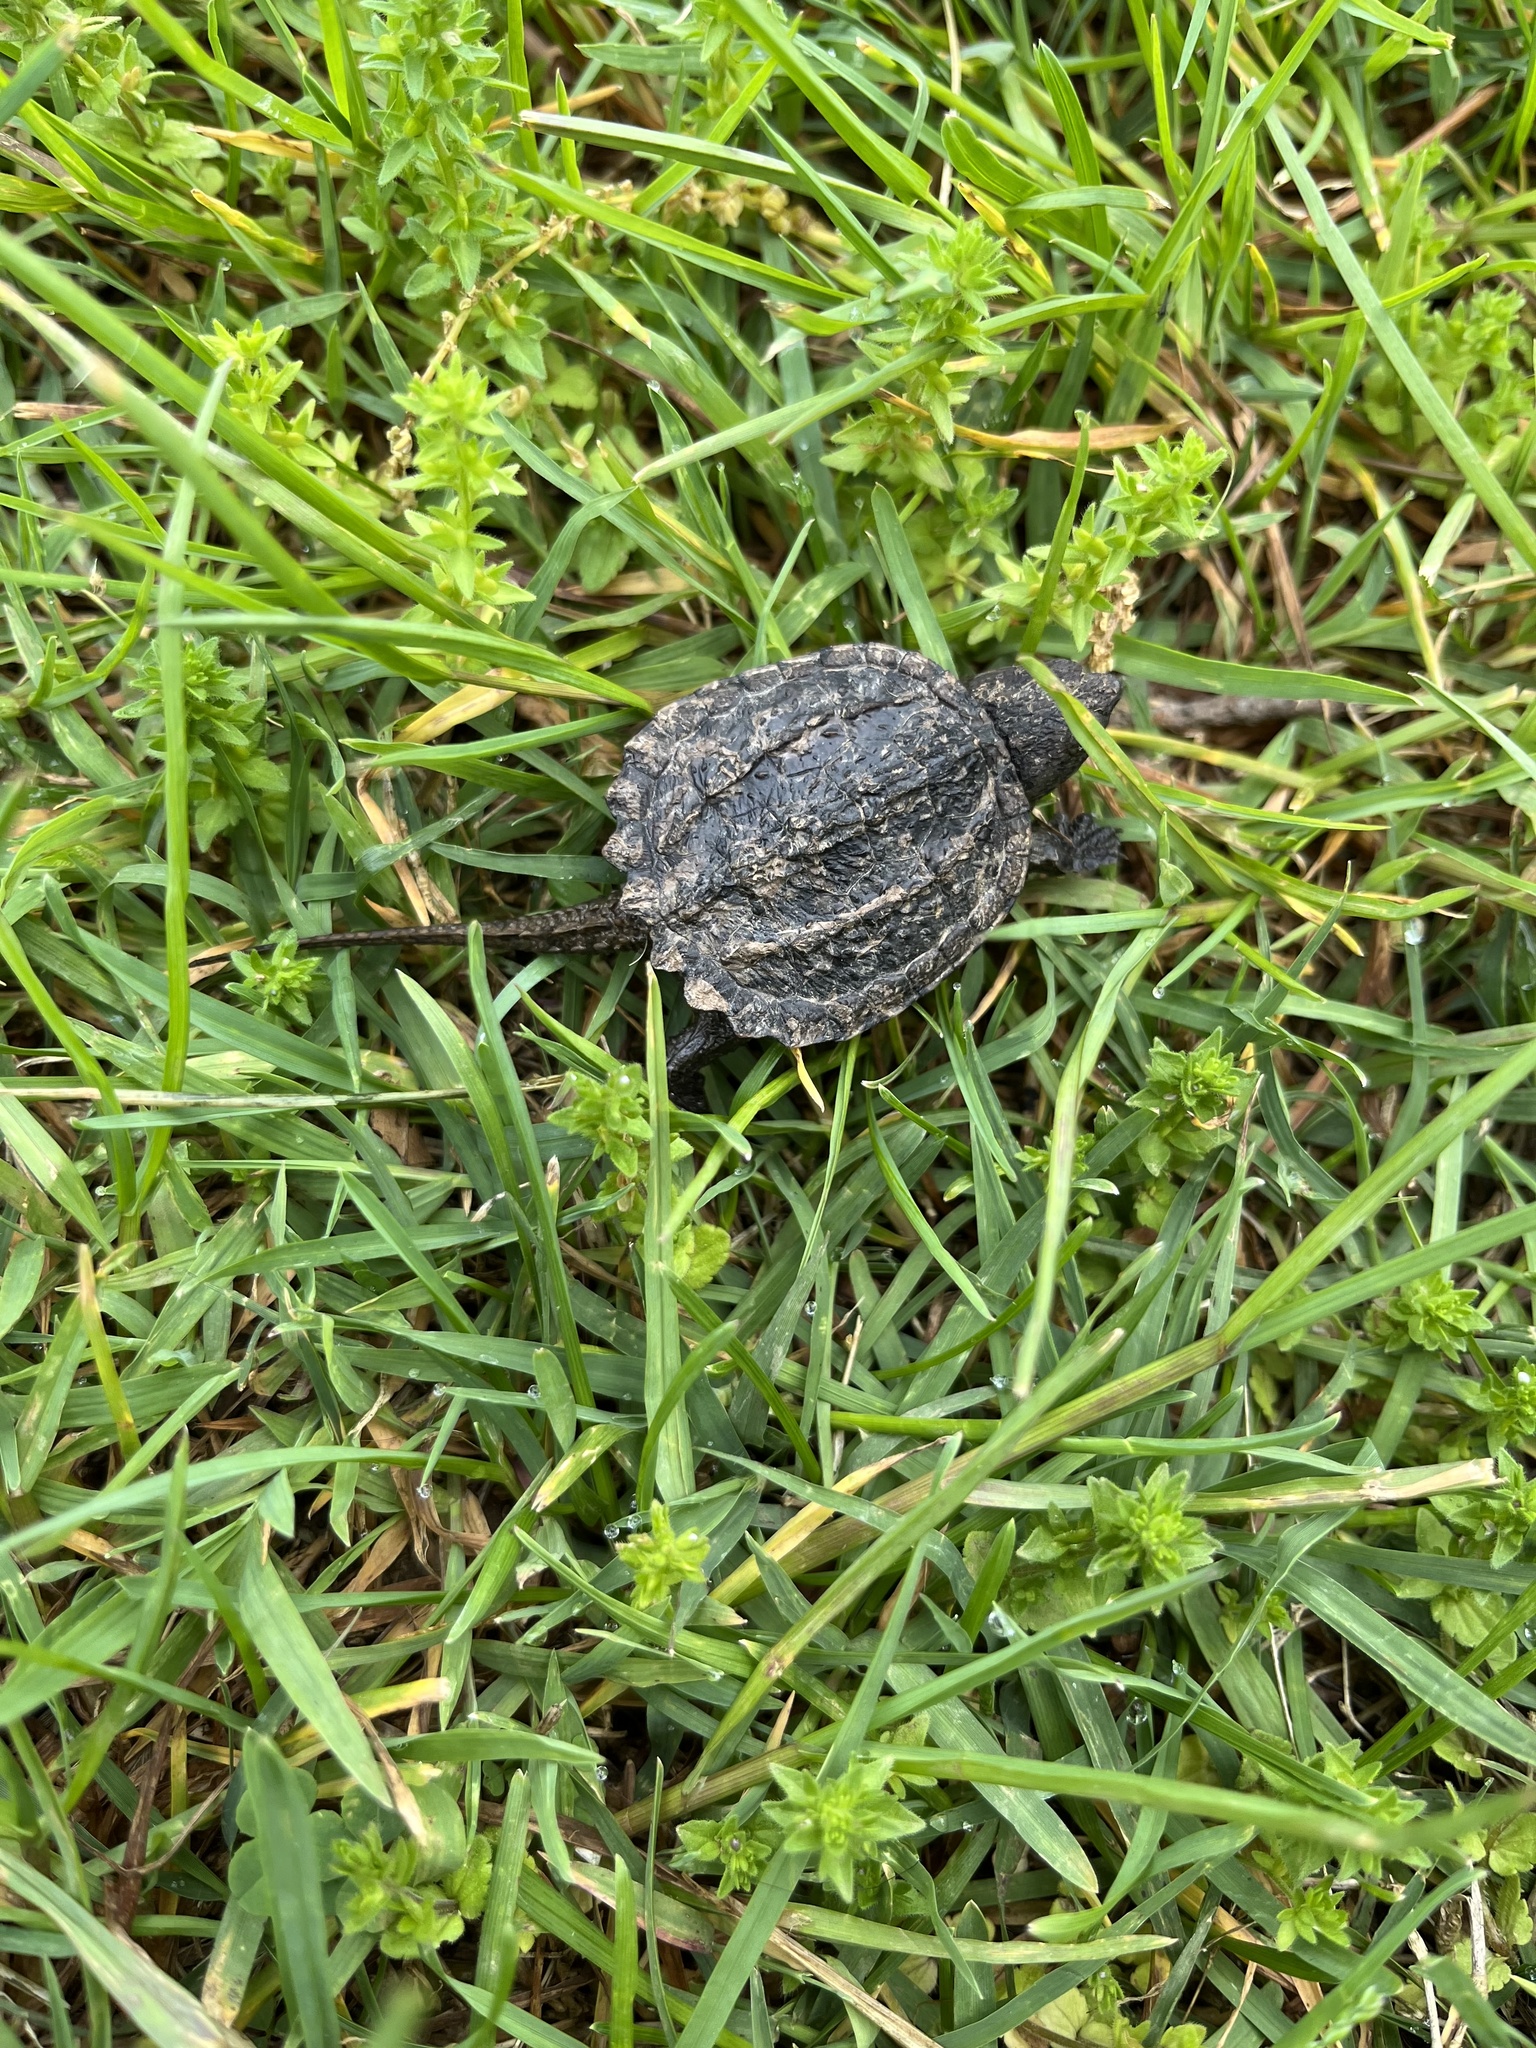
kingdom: Animalia
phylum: Chordata
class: Testudines
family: Chelydridae
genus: Chelydra
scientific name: Chelydra serpentina
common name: Common snapping turtle
